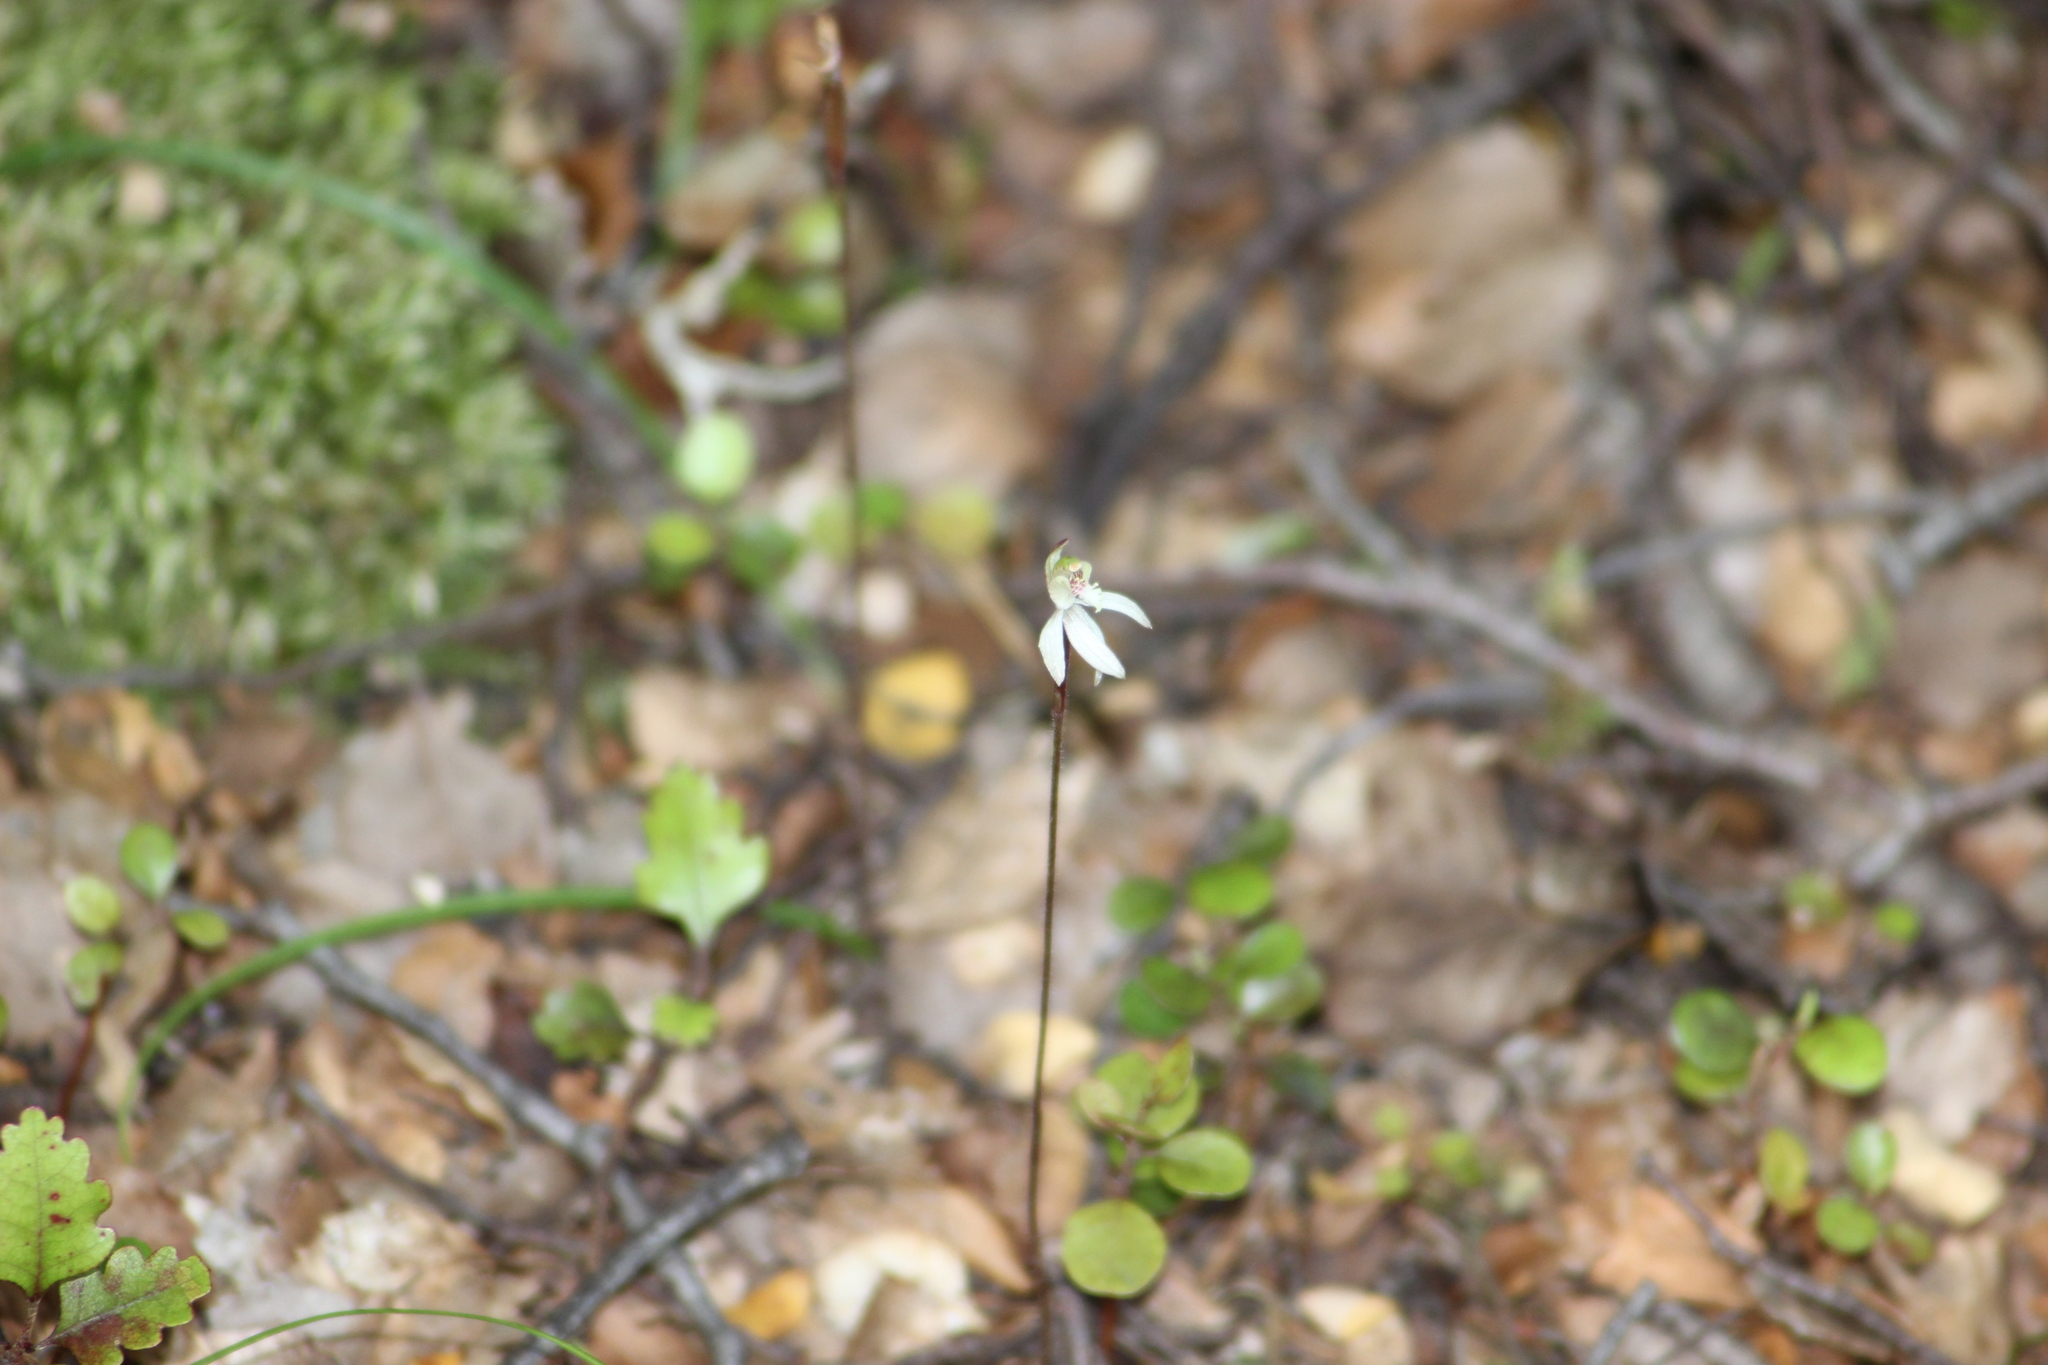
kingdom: Plantae
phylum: Tracheophyta
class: Liliopsida
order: Asparagales
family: Orchidaceae
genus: Caladenia
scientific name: Caladenia chlorostyla
